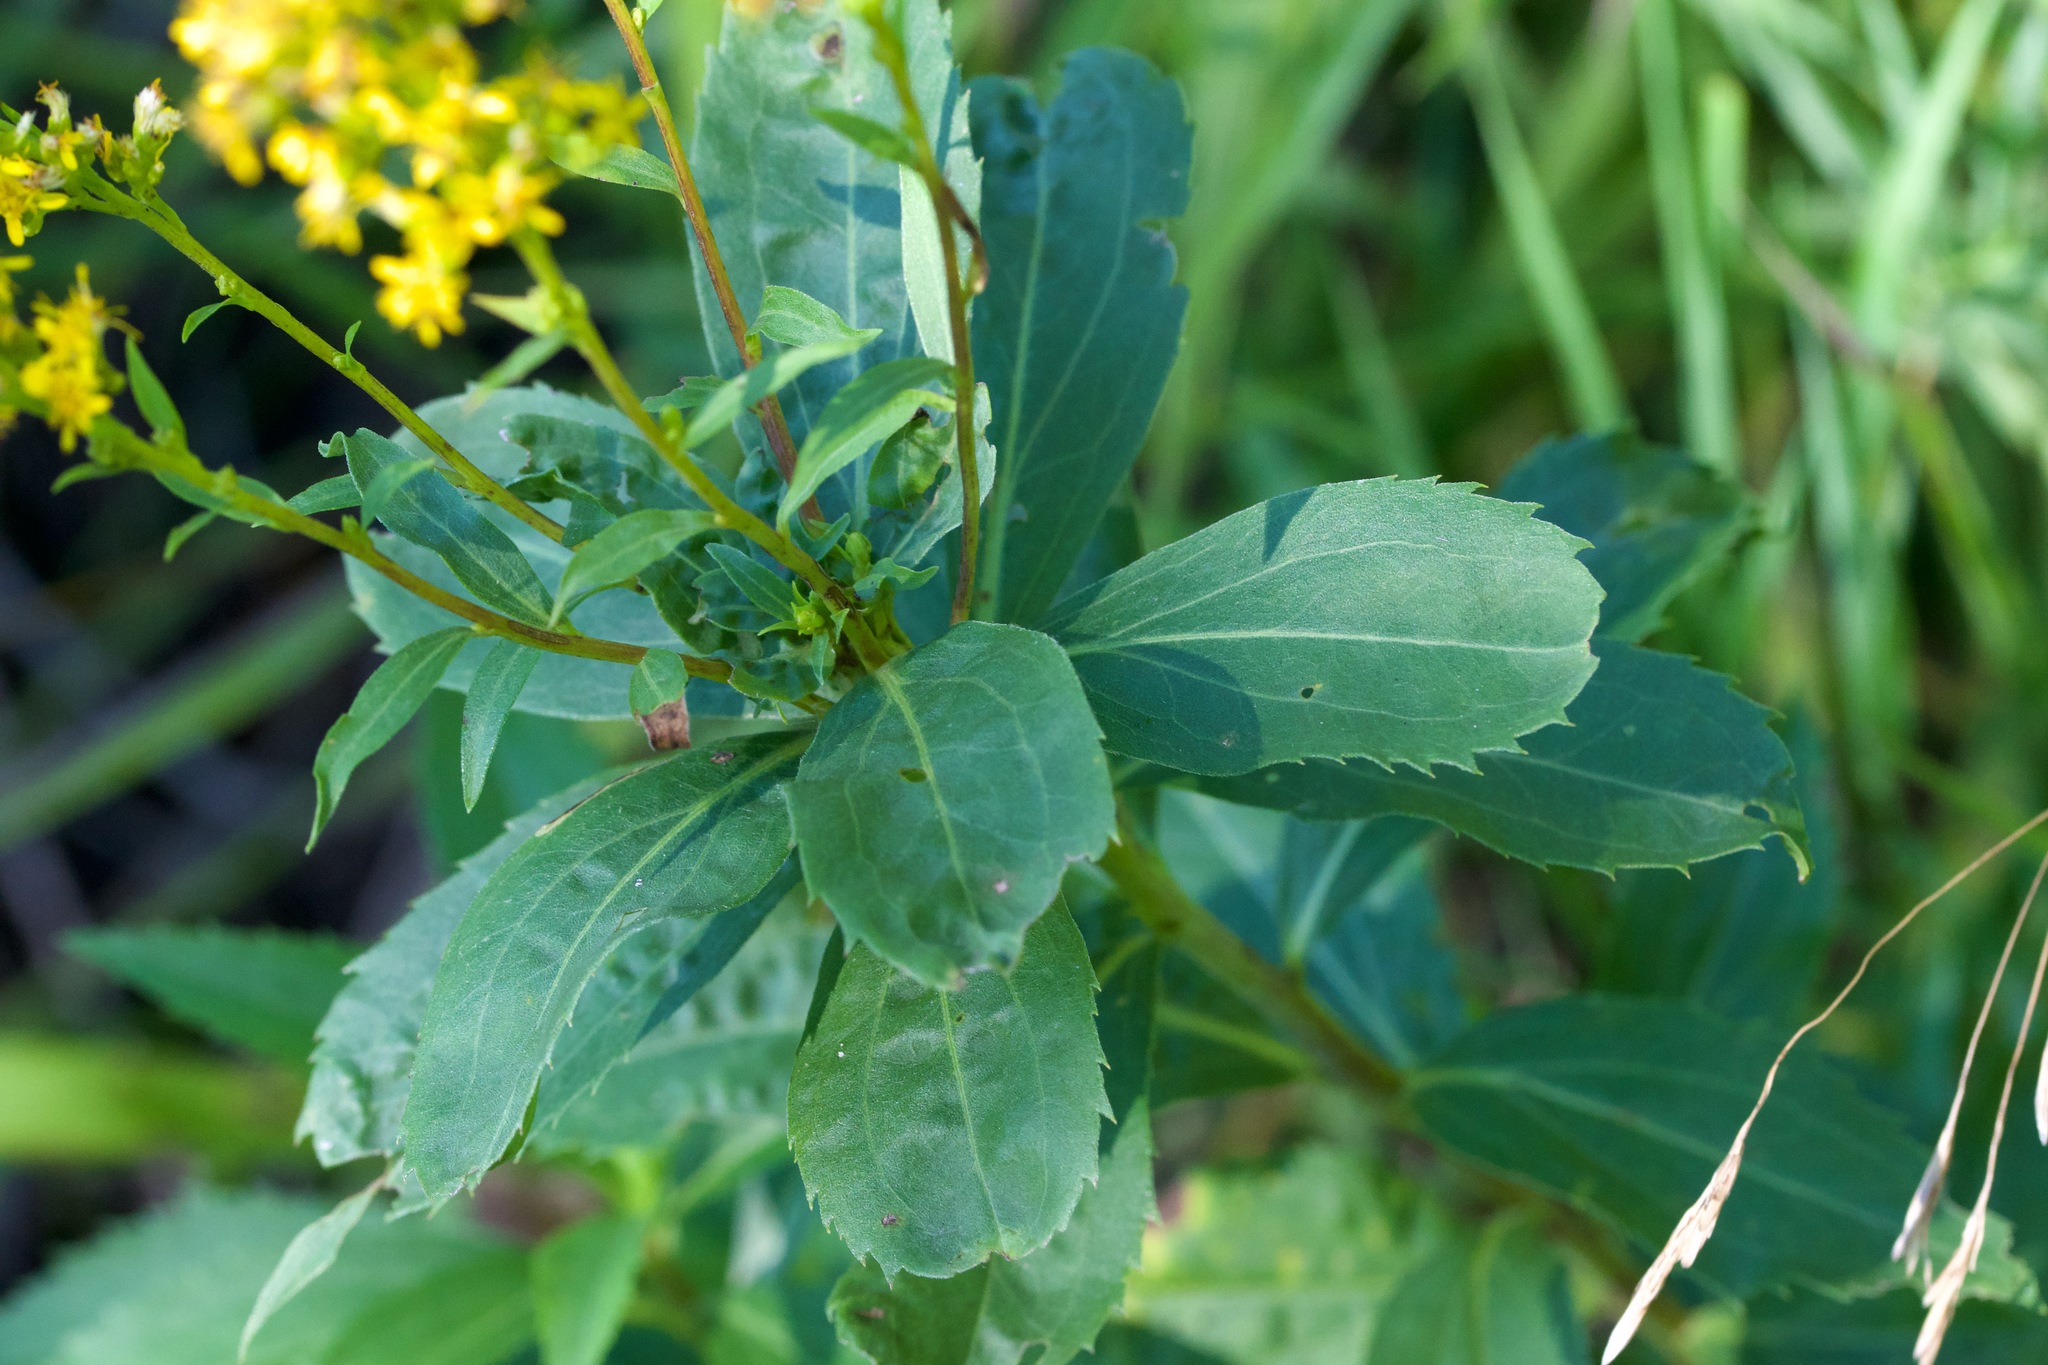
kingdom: Plantae
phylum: Tracheophyta
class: Magnoliopsida
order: Asterales
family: Asteraceae
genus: Solidago
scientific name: Solidago gigantea
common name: Giant goldenrod
